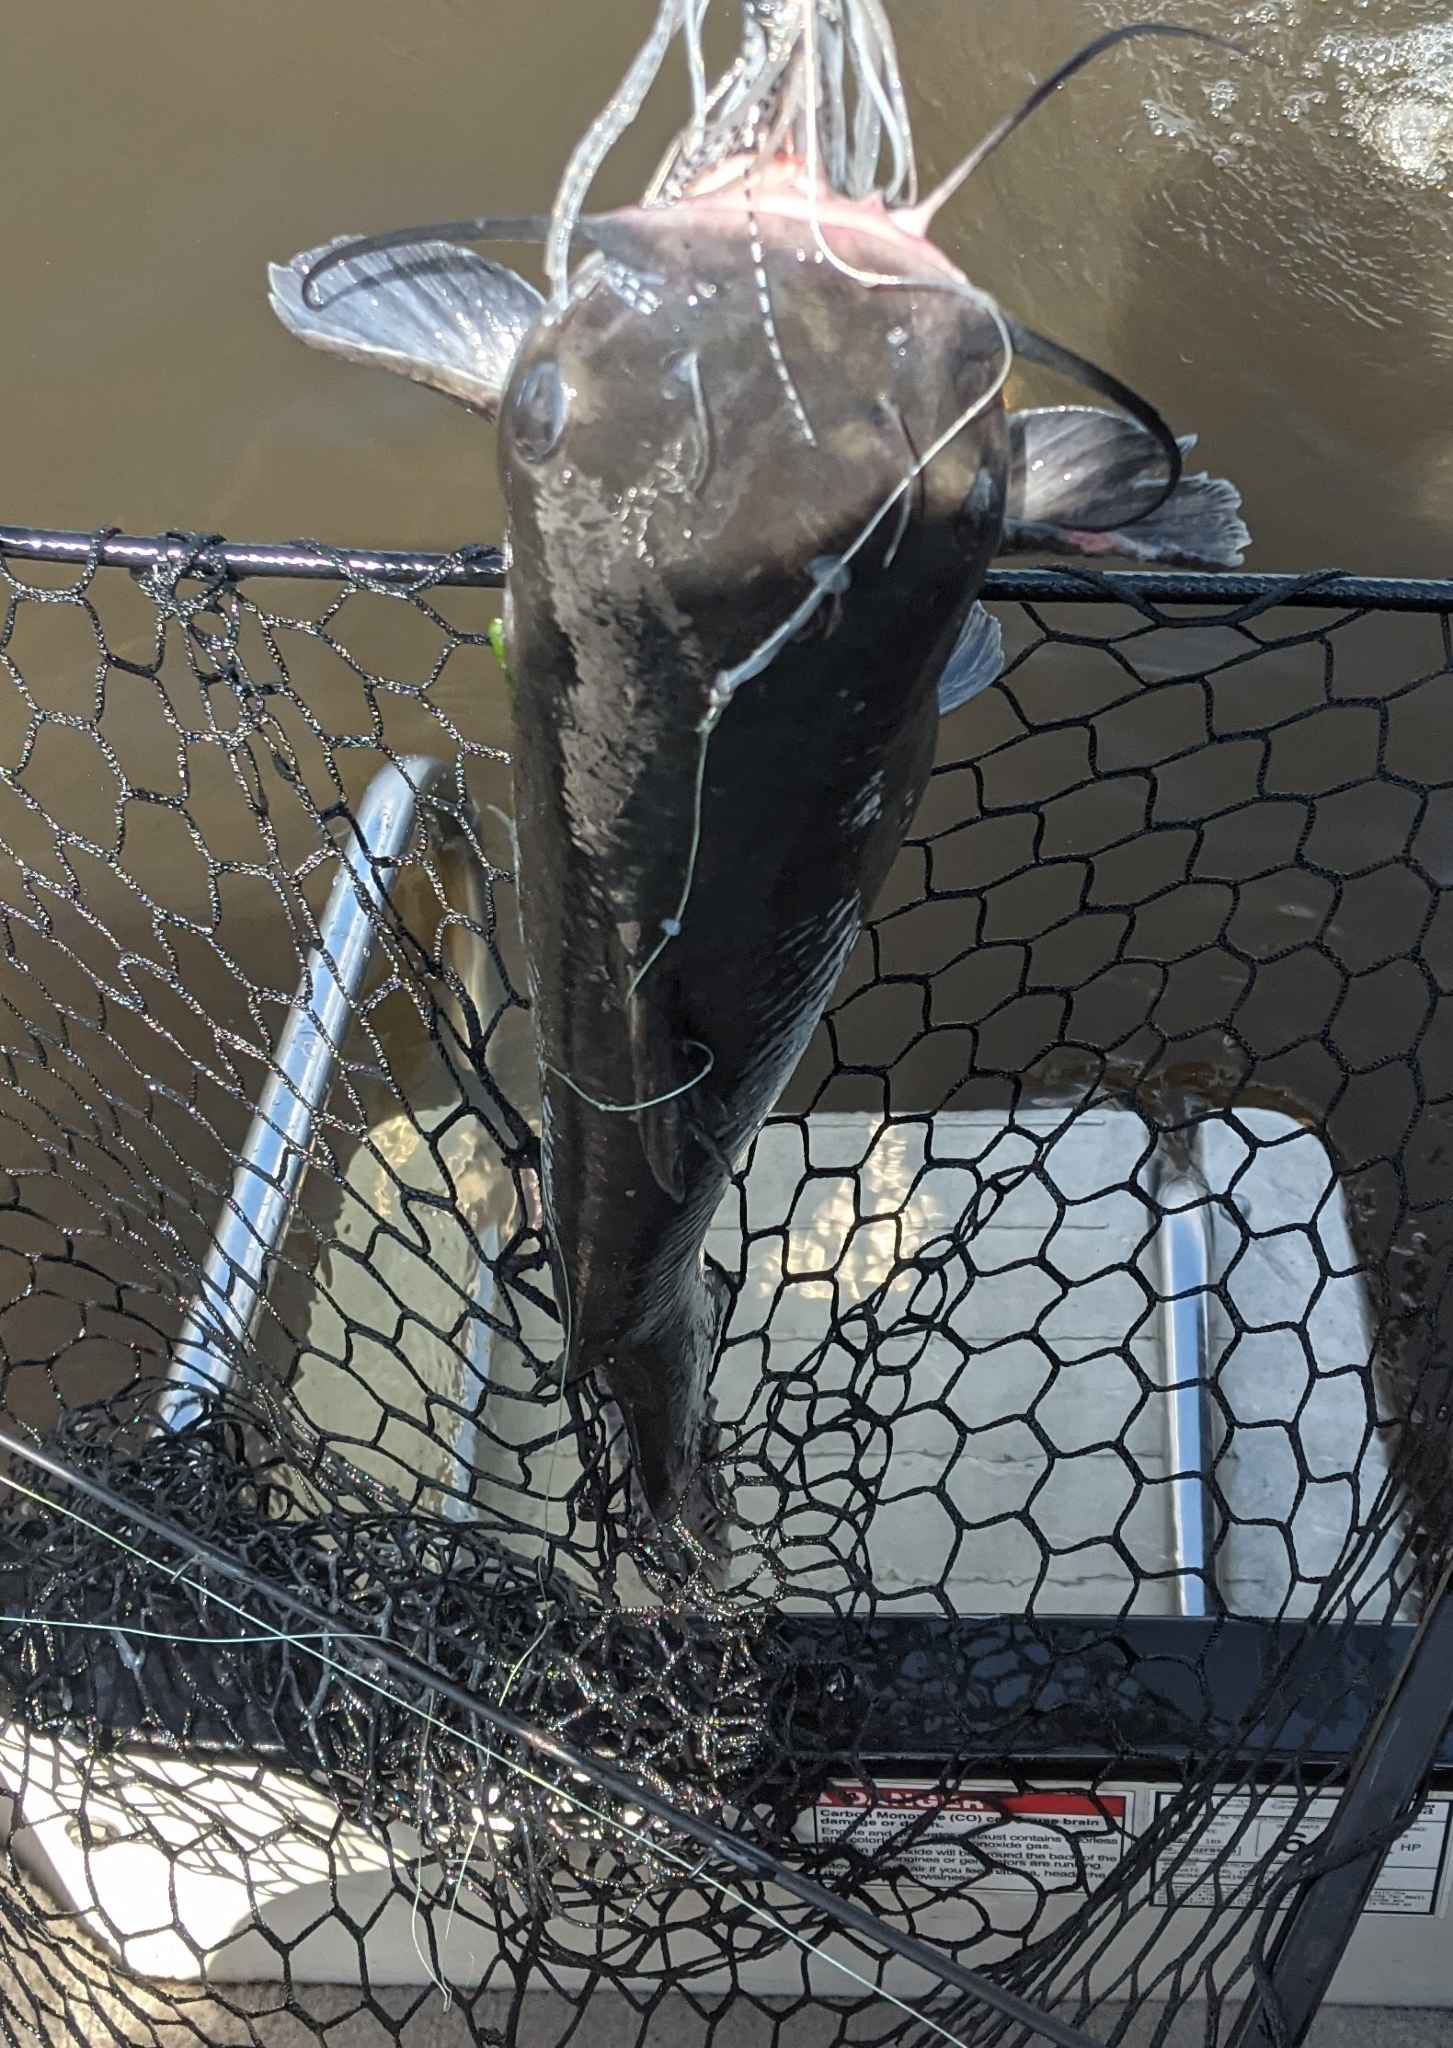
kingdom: Animalia
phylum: Chordata
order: Siluriformes
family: Ictaluridae
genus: Ictalurus
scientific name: Ictalurus punctatus
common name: Channel catfish
